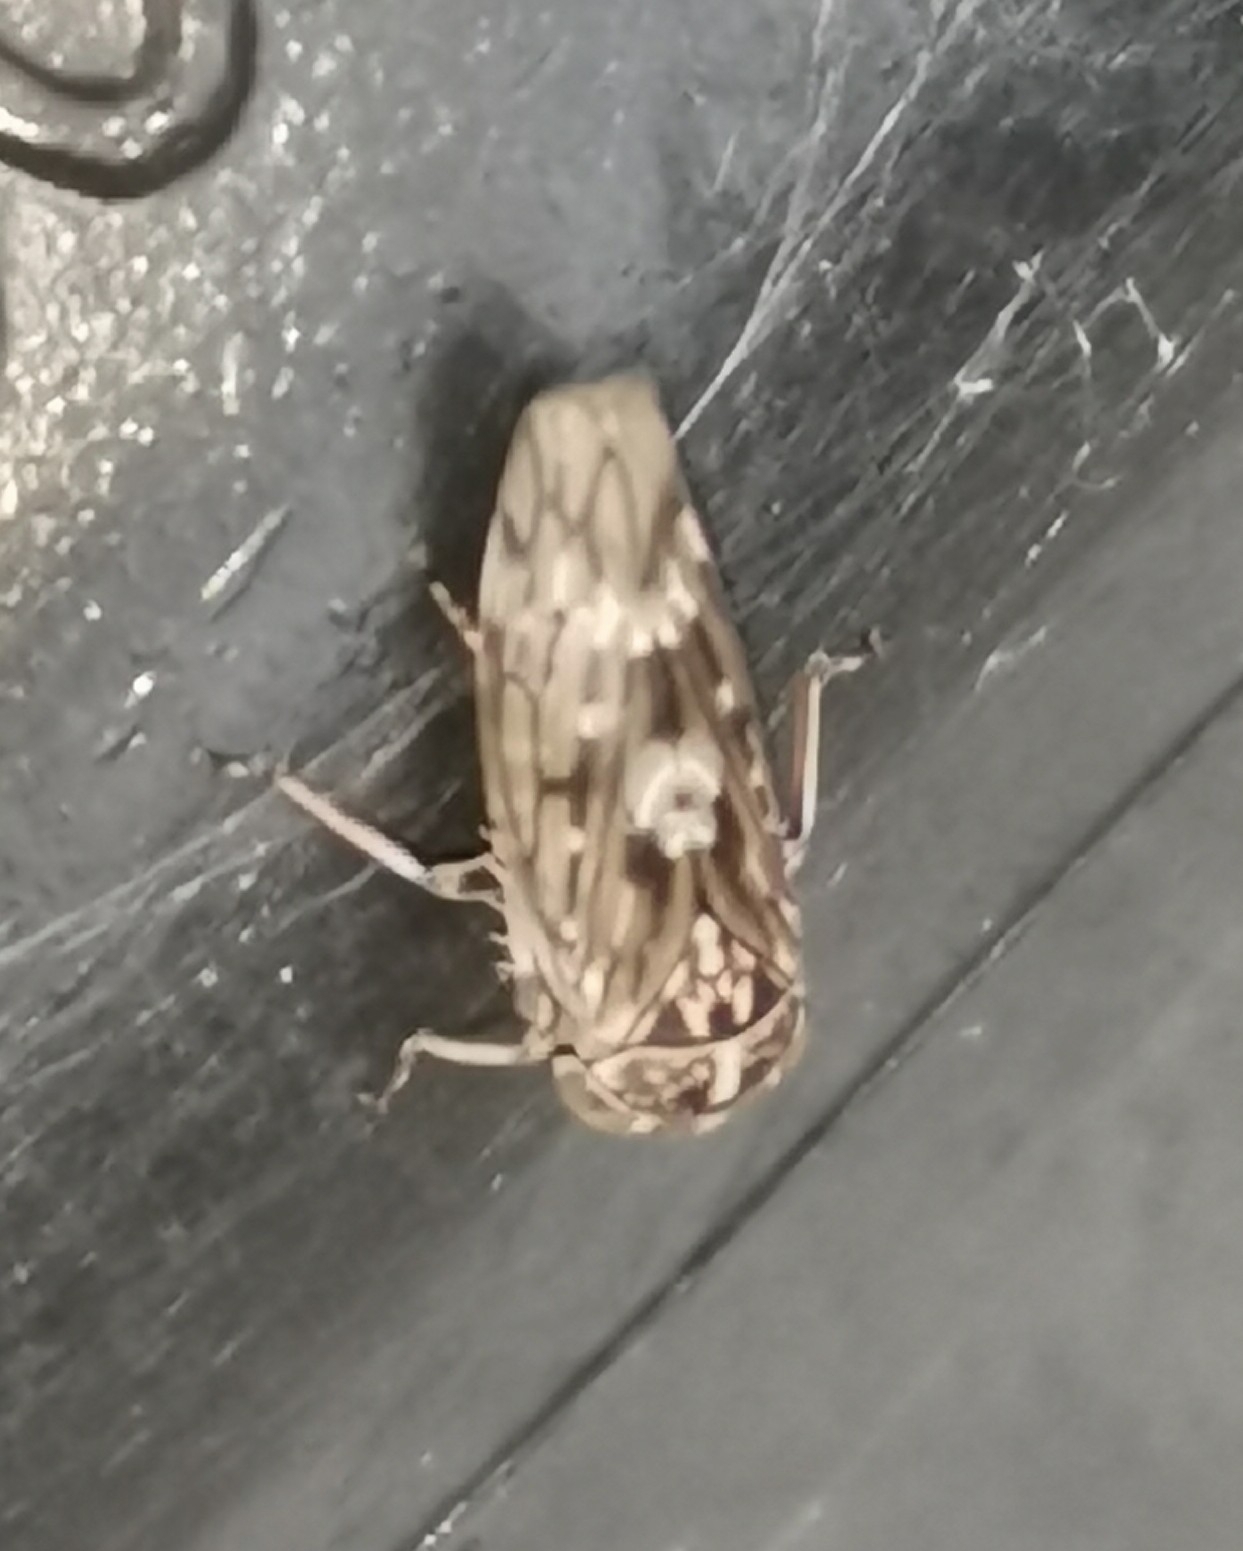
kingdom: Animalia
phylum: Arthropoda
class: Insecta
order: Hemiptera
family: Cicadellidae
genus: Metidiocerus
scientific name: Metidiocerus poecilus
